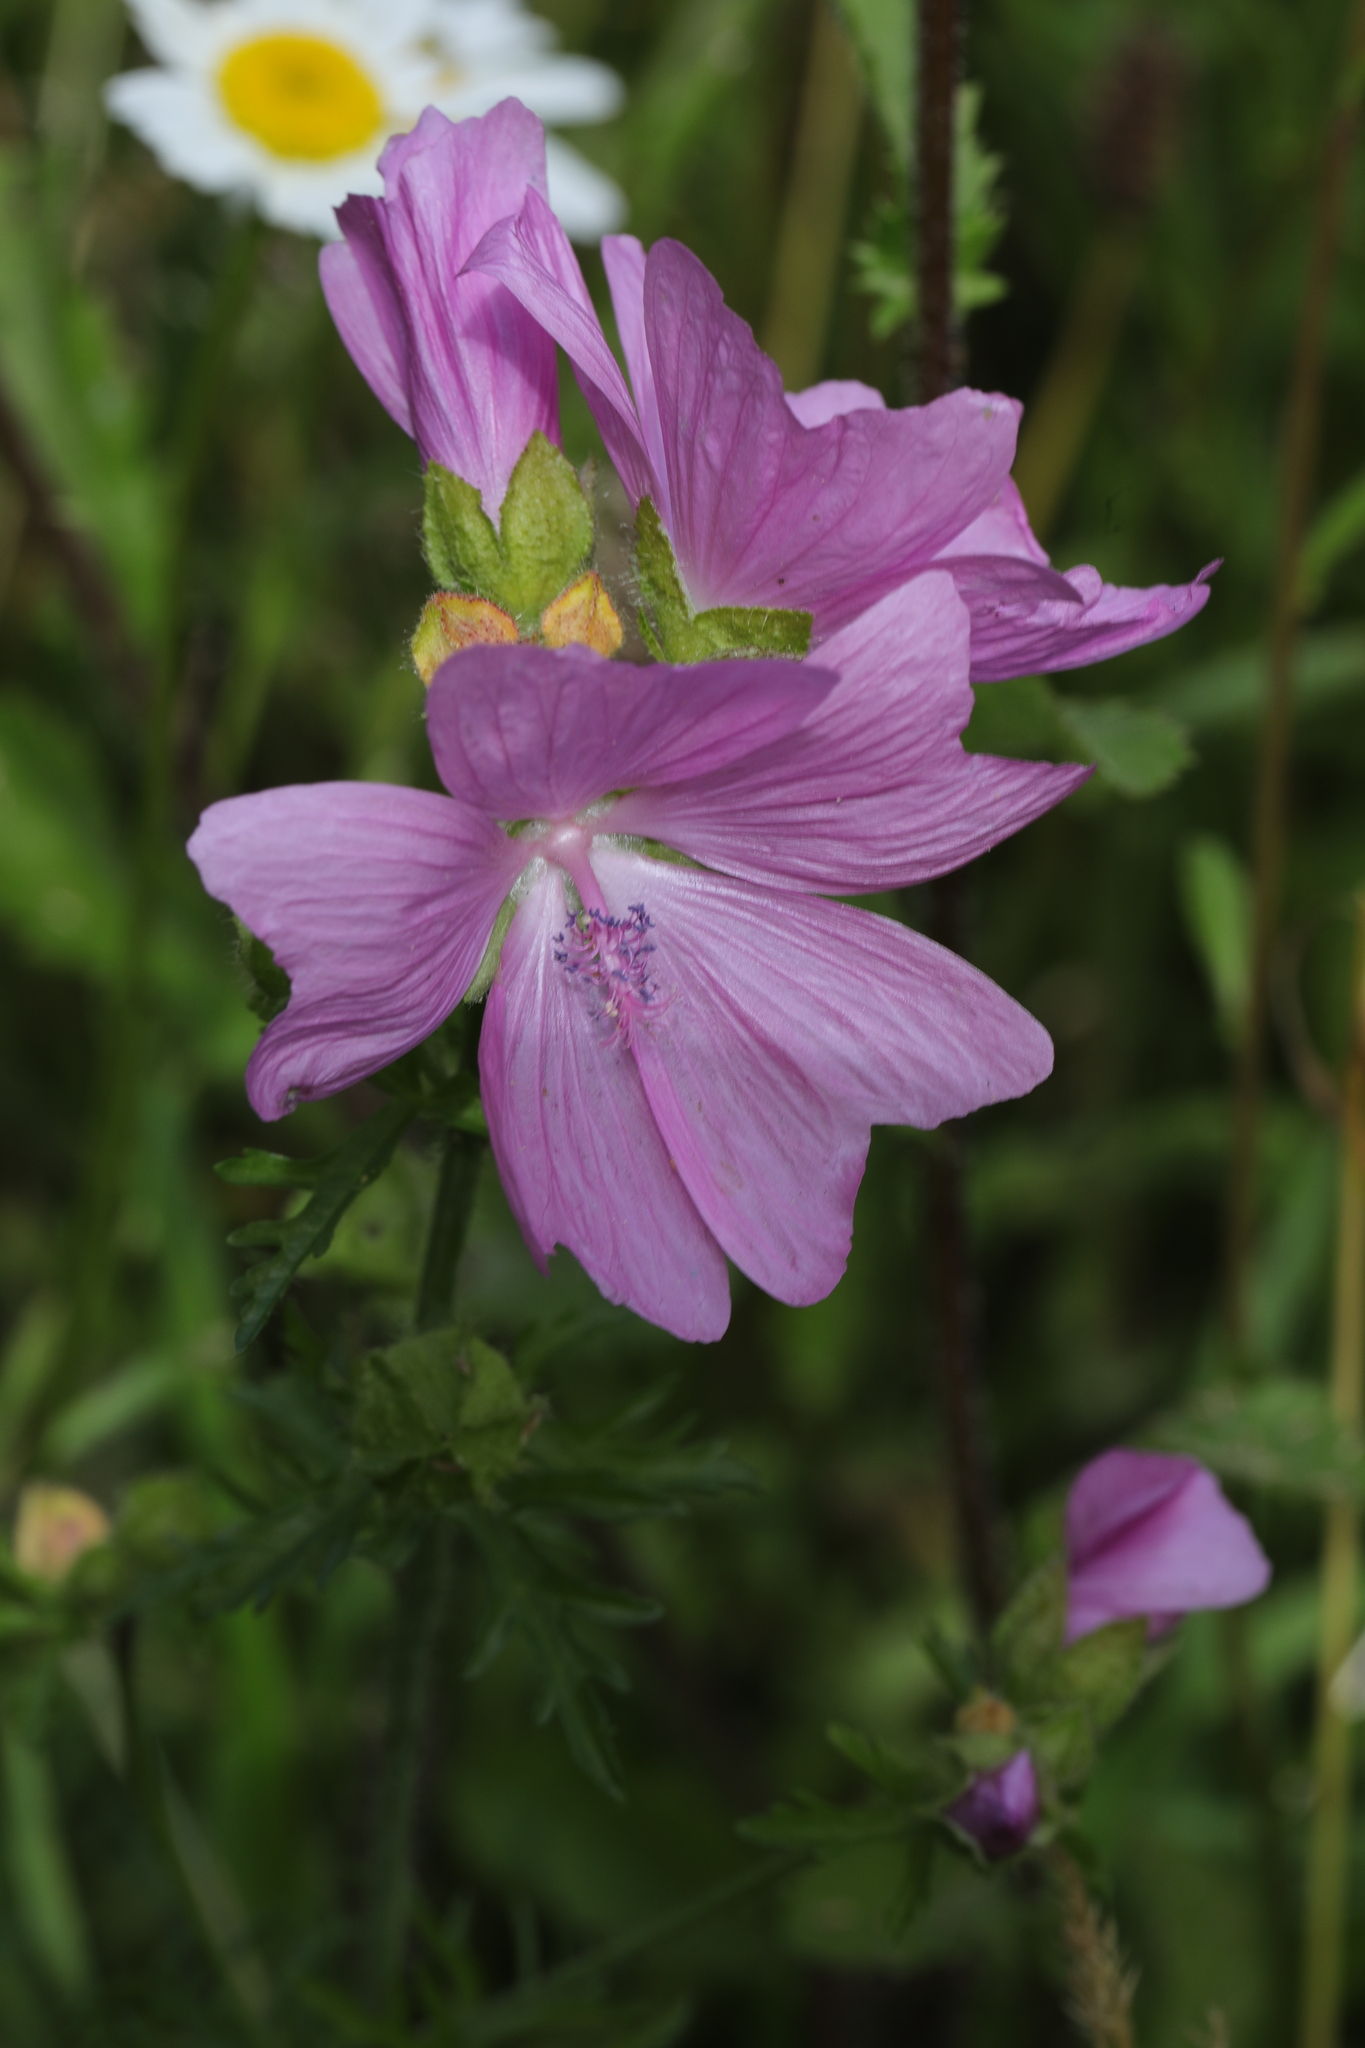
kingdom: Plantae
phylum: Tracheophyta
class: Magnoliopsida
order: Malvales
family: Malvaceae
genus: Malva
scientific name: Malva moschata
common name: Musk mallow
